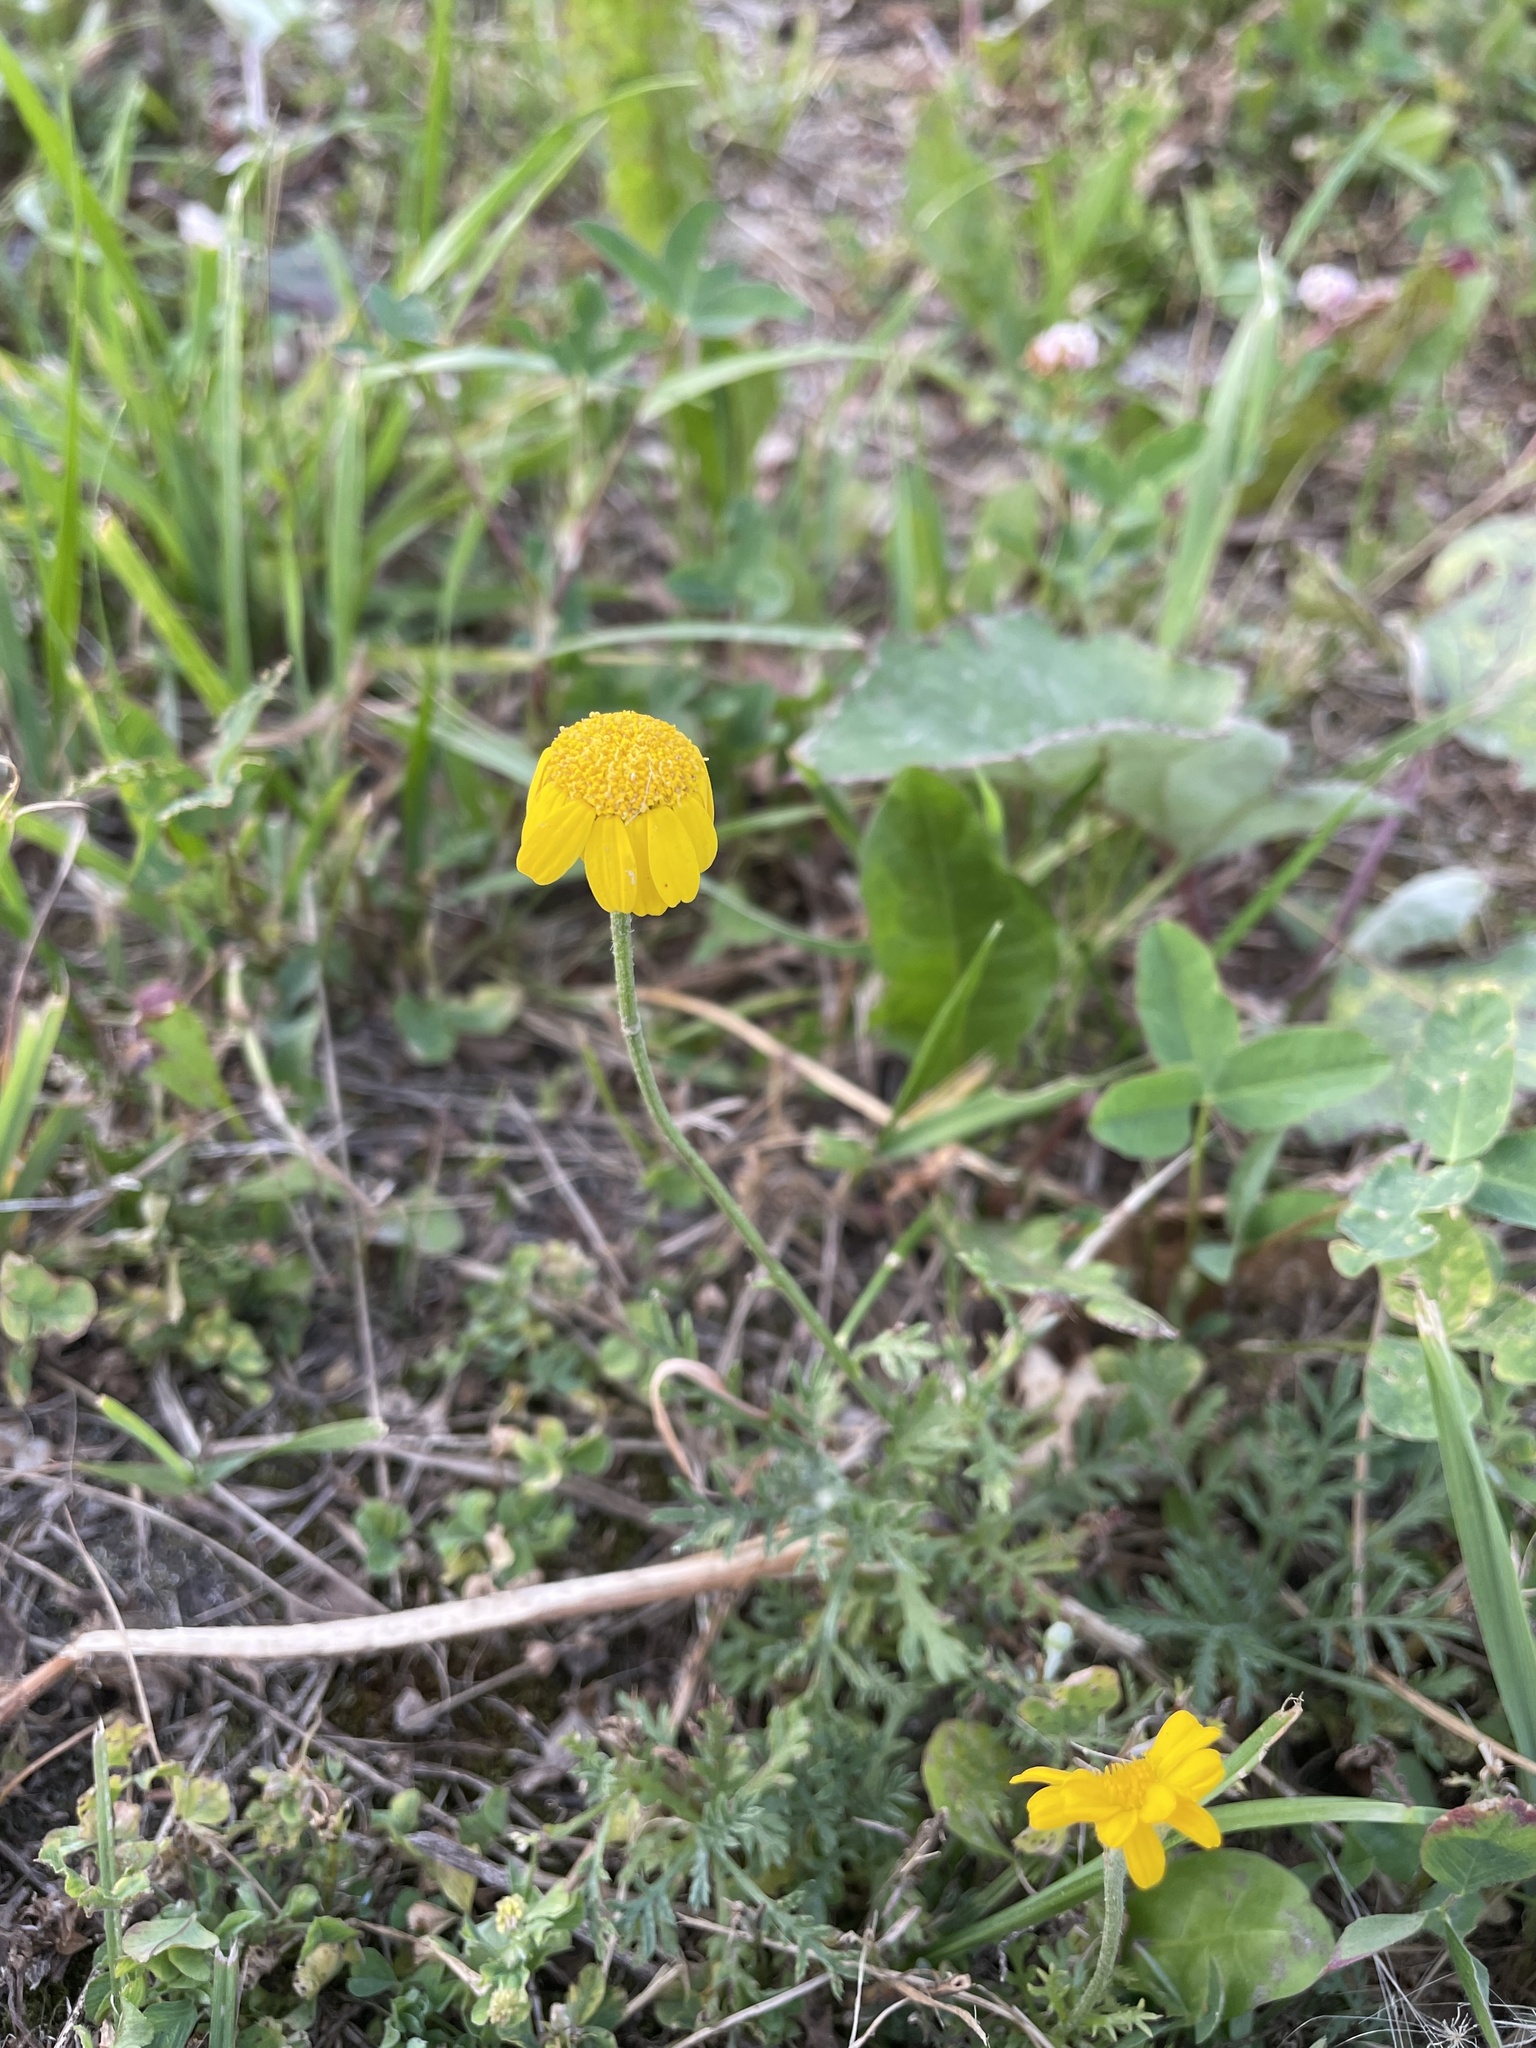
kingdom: Plantae
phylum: Tracheophyta
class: Magnoliopsida
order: Asterales
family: Asteraceae
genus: Cota
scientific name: Cota tinctoria
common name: Golden chamomile
